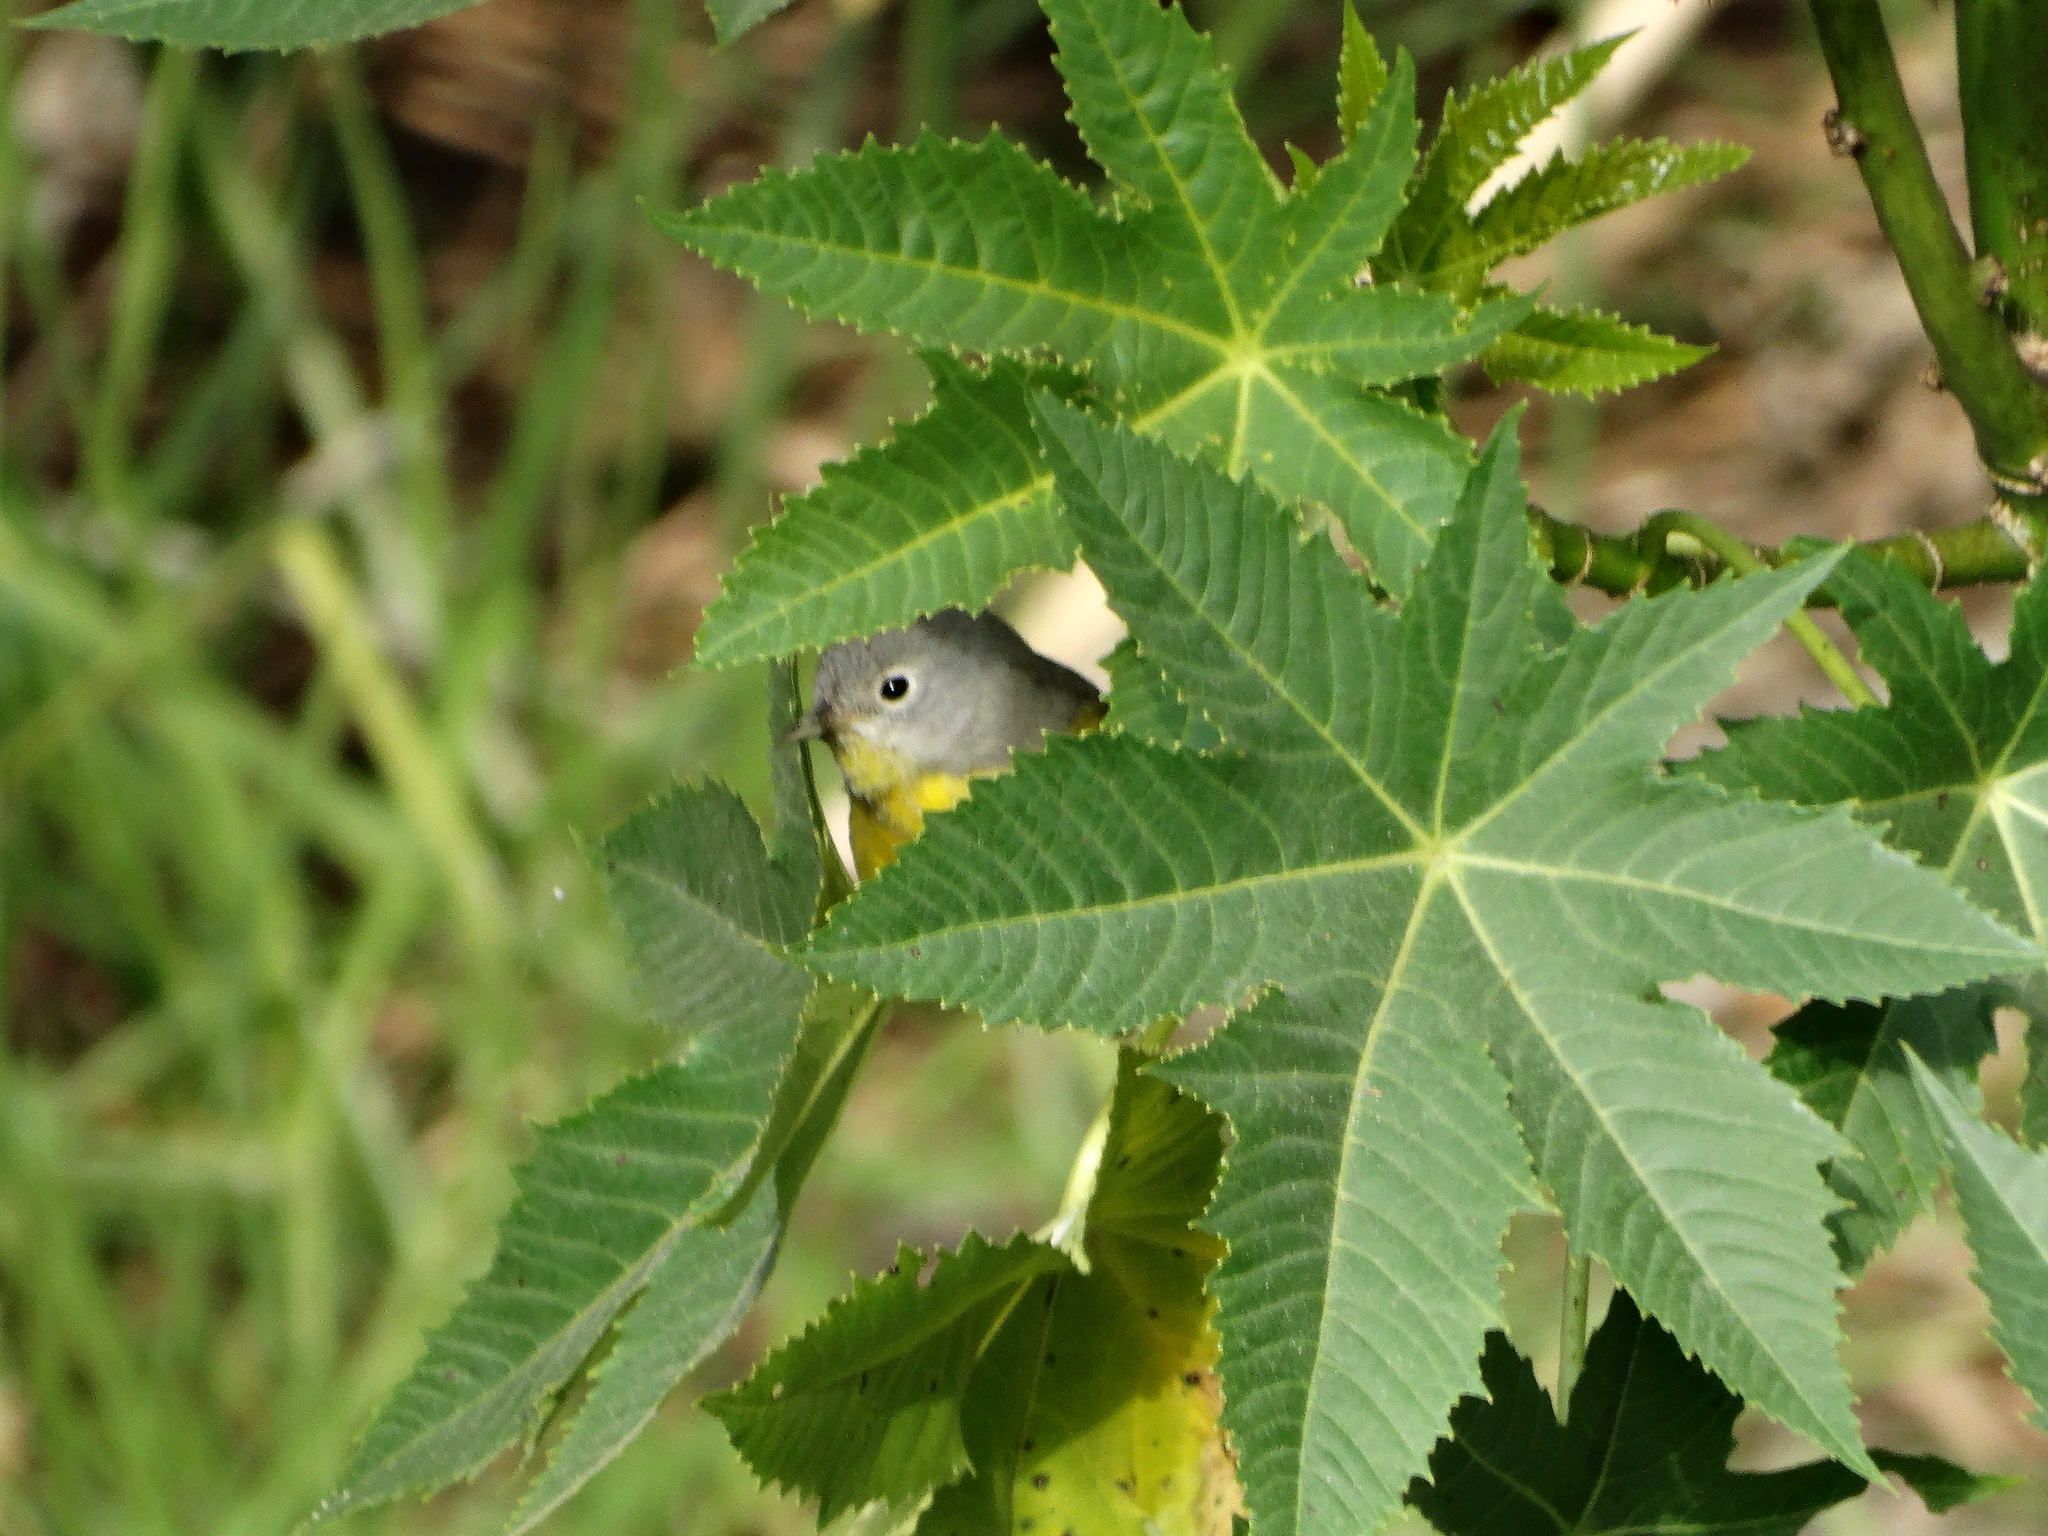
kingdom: Animalia
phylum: Chordata
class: Aves
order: Passeriformes
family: Parulidae
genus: Leiothlypis
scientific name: Leiothlypis ruficapilla
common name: Nashville warbler
